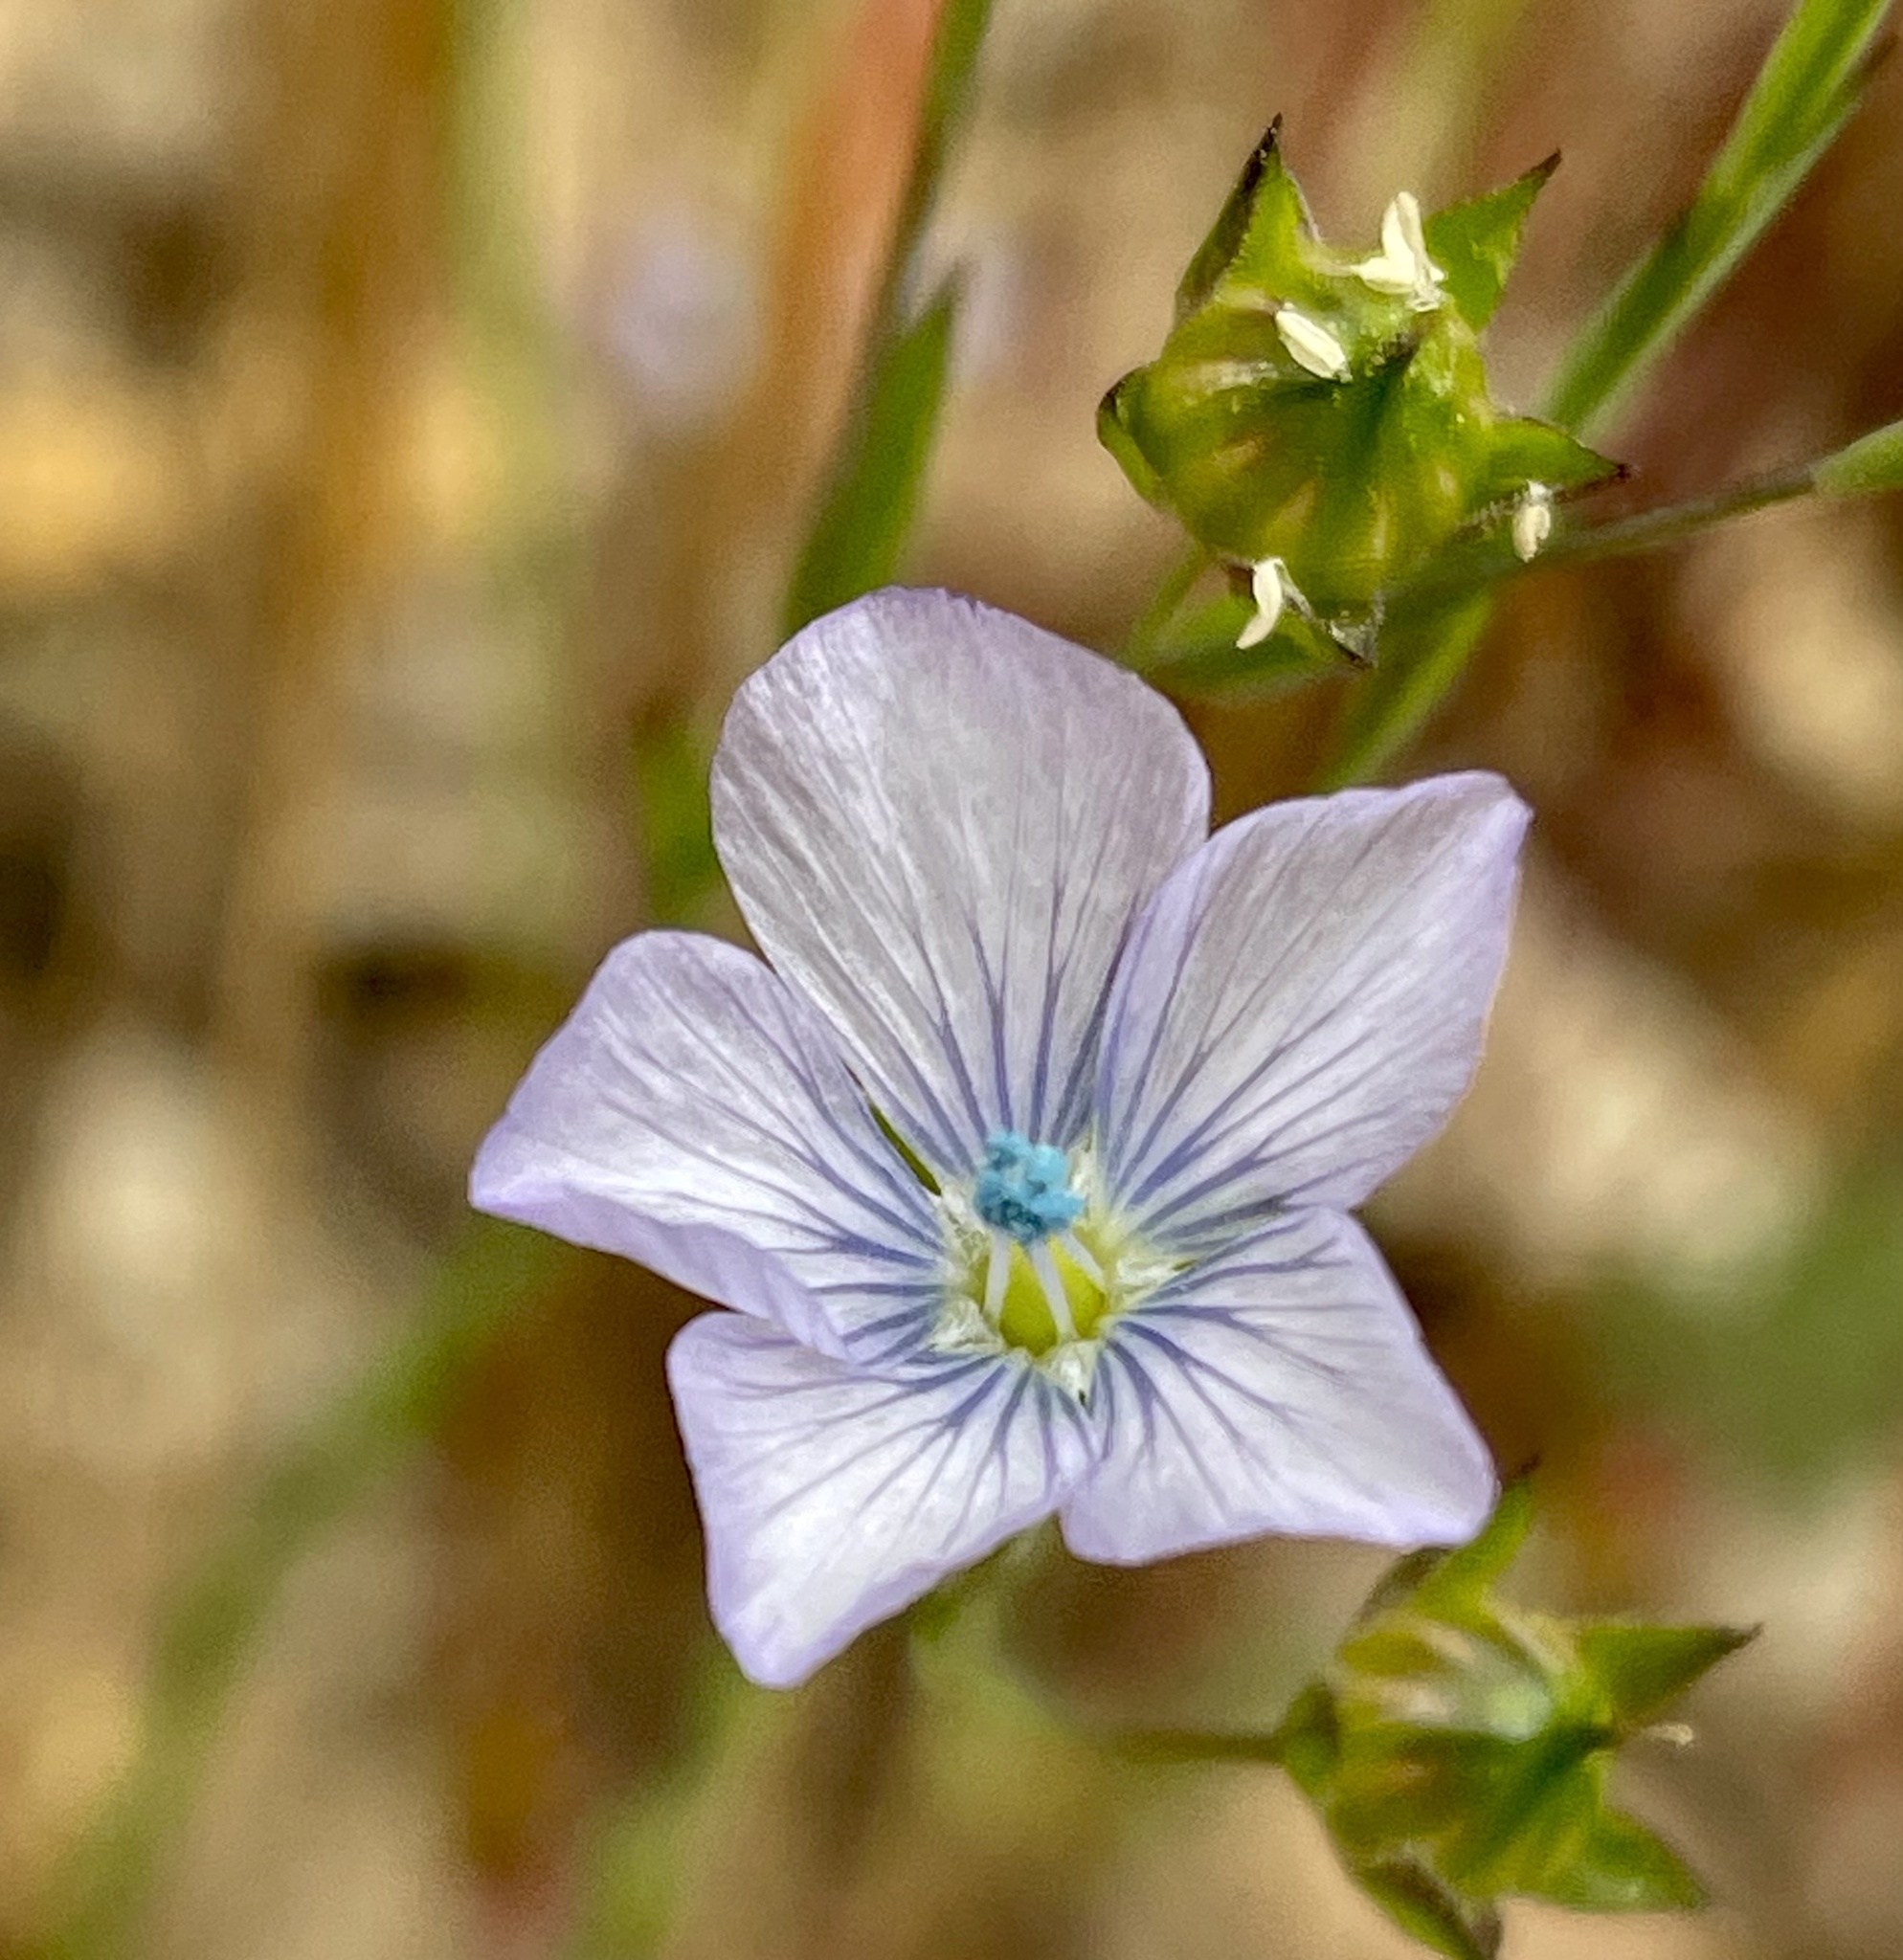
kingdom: Plantae
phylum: Tracheophyta
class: Magnoliopsida
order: Malpighiales
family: Linaceae
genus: Linum
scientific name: Linum bienne
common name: Pale flax
